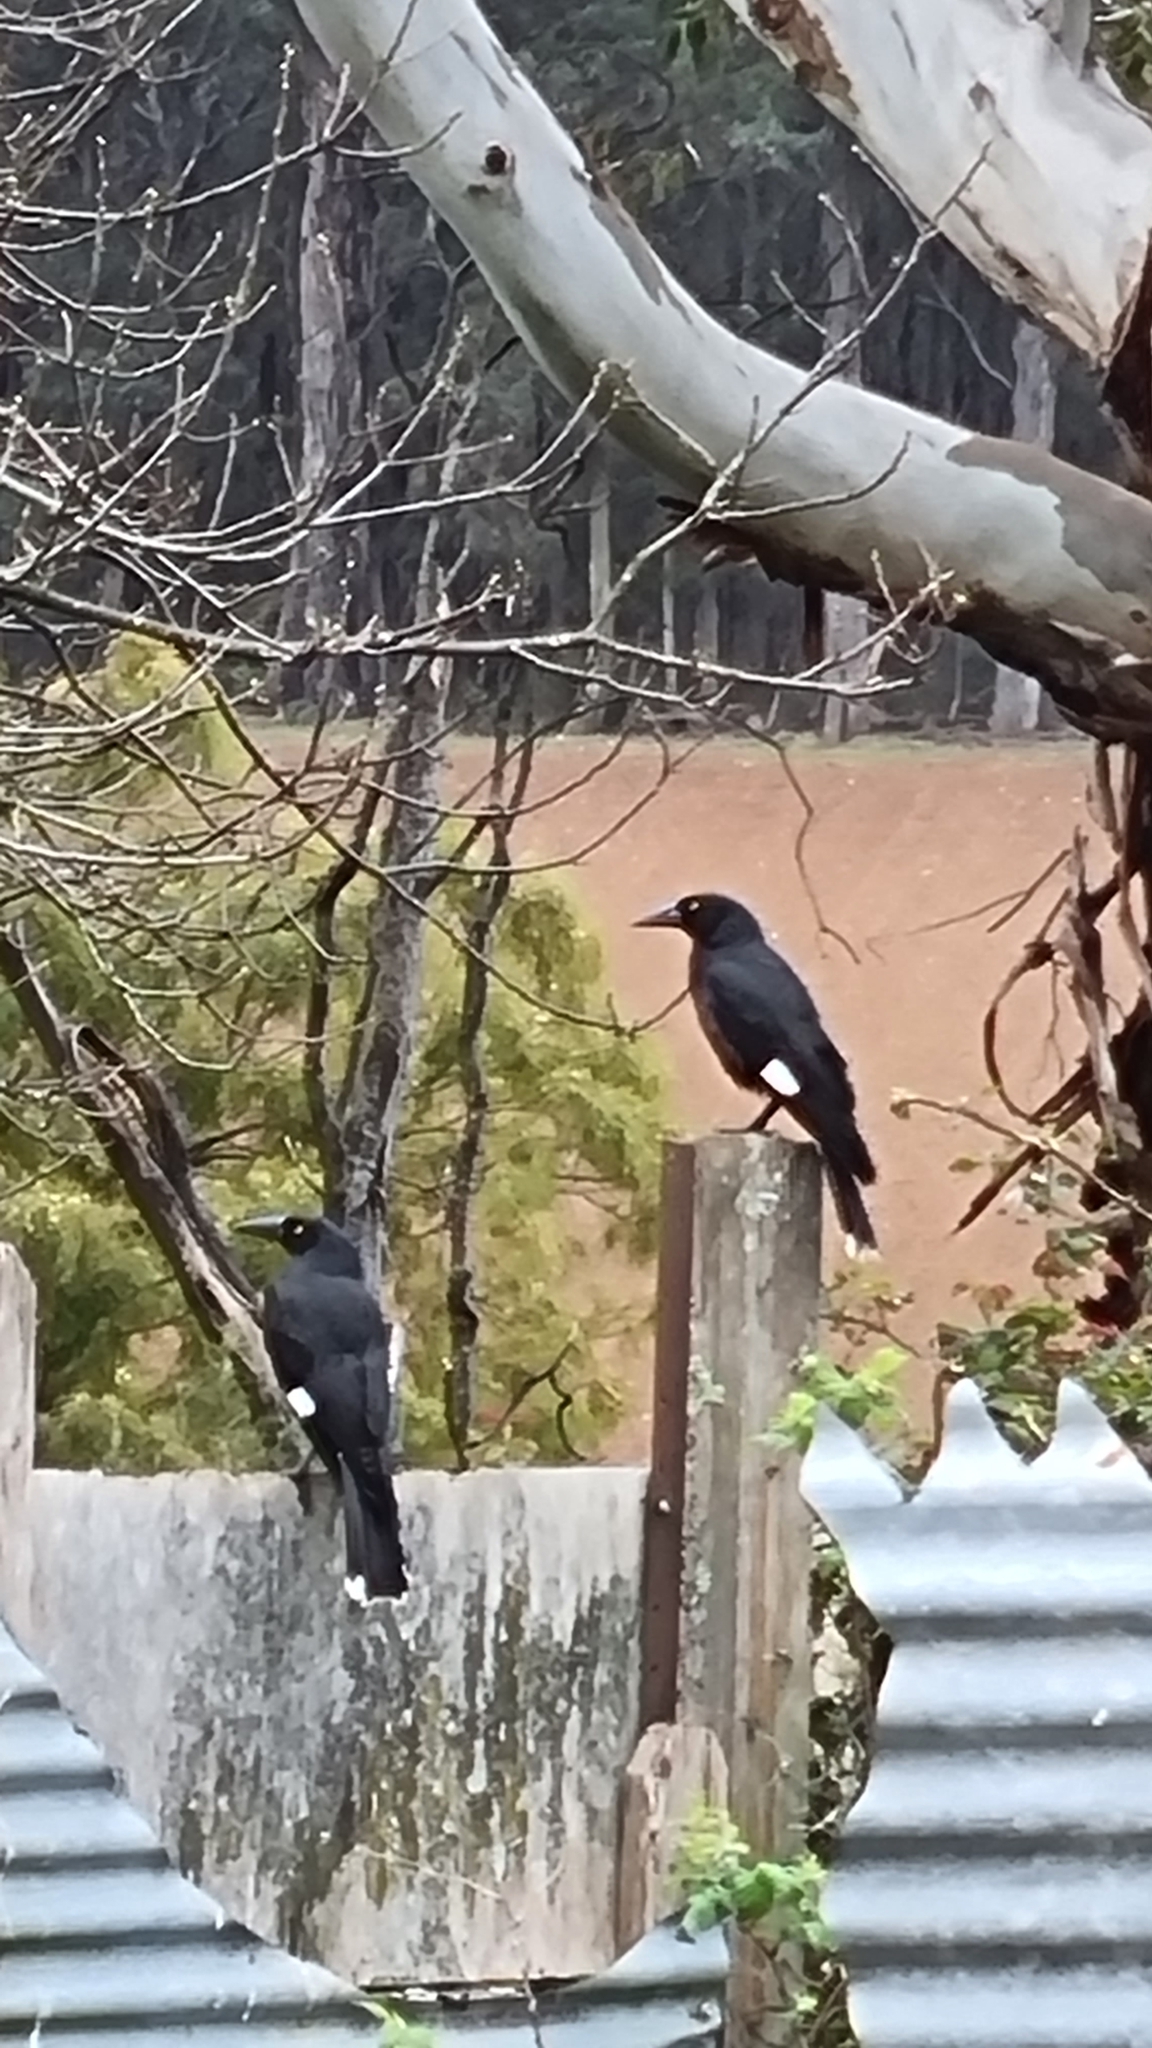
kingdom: Animalia
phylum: Chordata
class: Aves
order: Passeriformes
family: Cracticidae
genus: Strepera
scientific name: Strepera graculina
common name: Pied currawong
